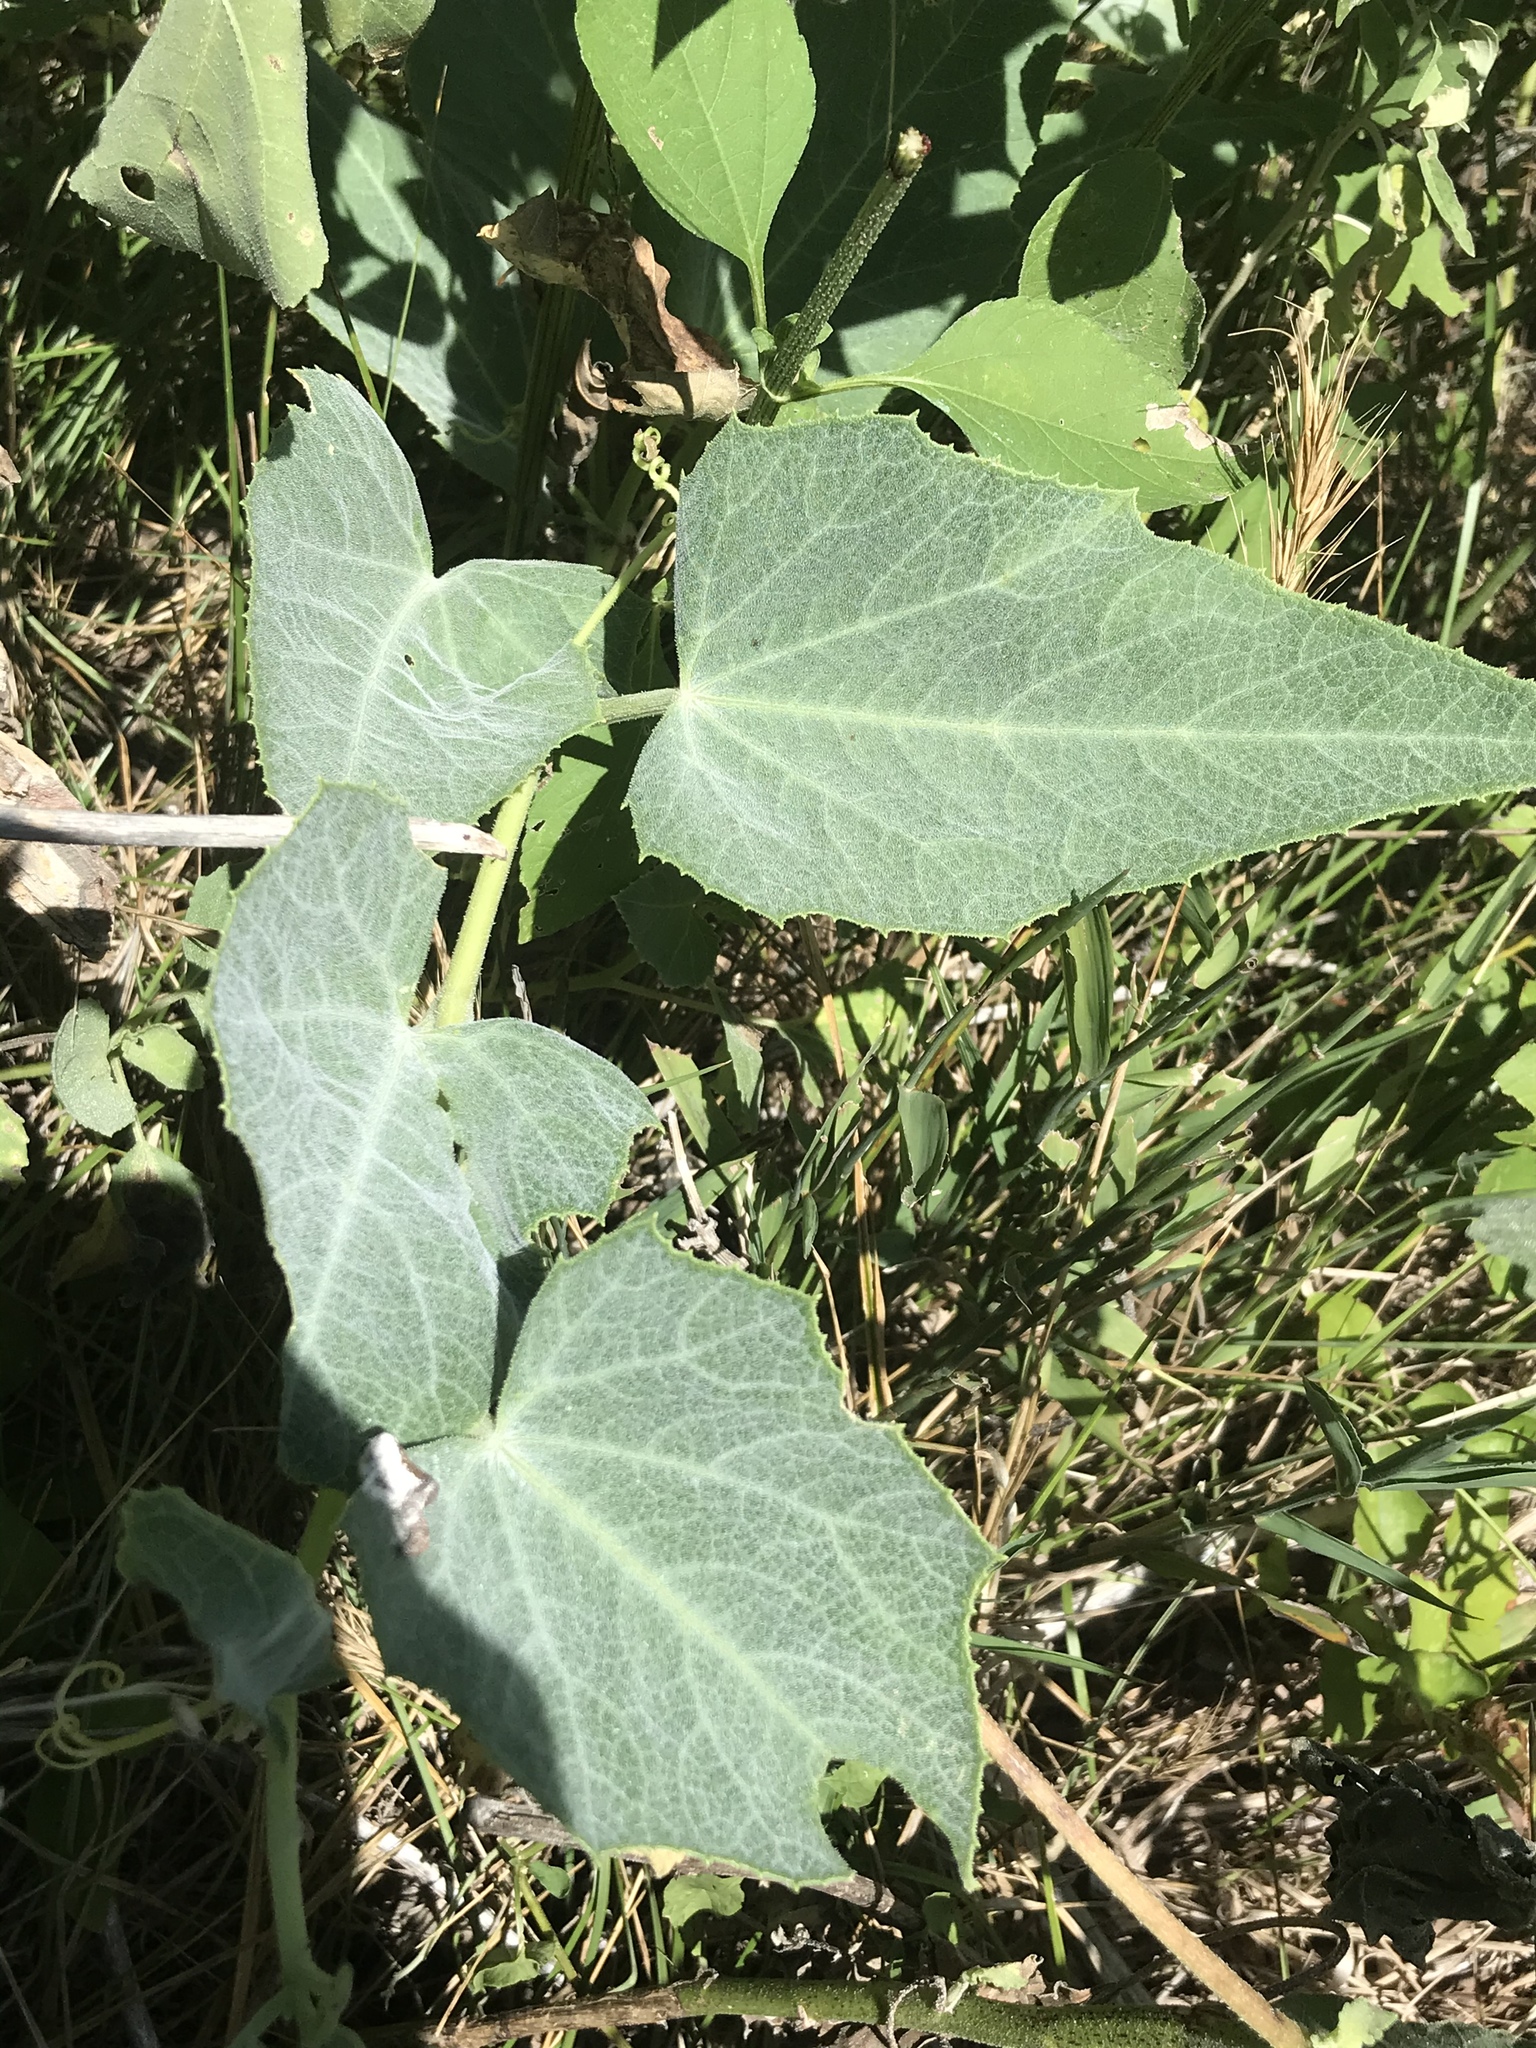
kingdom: Plantae
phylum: Tracheophyta
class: Magnoliopsida
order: Cucurbitales
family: Cucurbitaceae
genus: Cucurbita
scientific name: Cucurbita foetidissima
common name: Buffalo gourd
